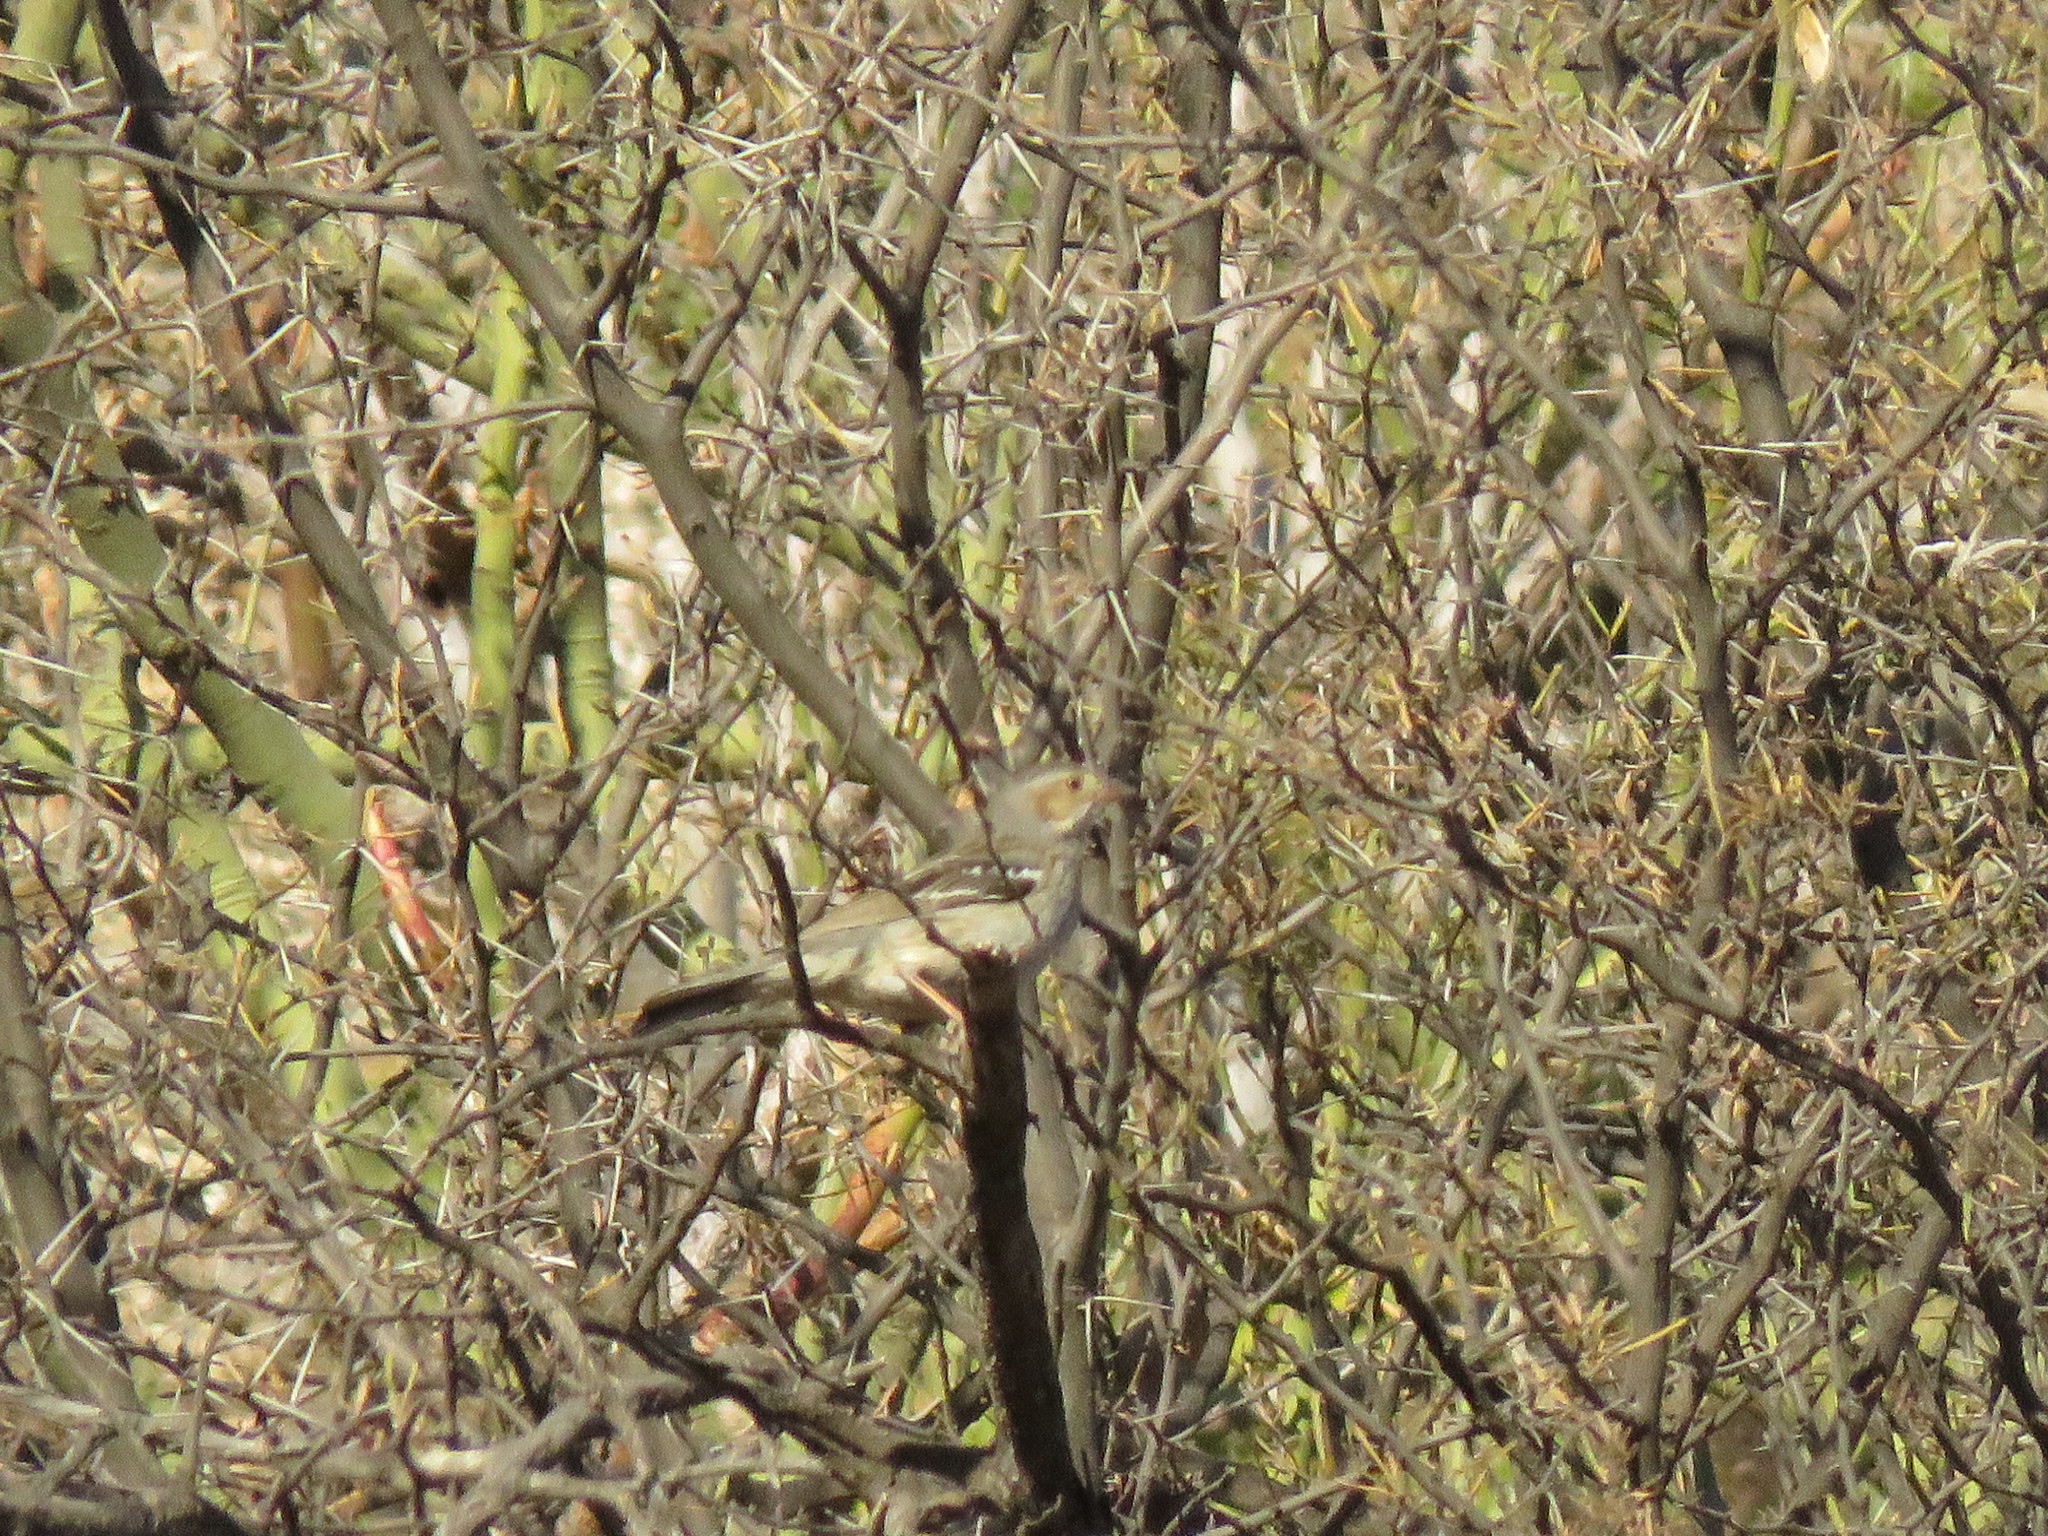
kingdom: Animalia
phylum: Chordata
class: Aves
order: Passeriformes
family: Thraupidae
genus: Rhopospina
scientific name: Rhopospina fruticeti
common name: Mourning sierra finch
